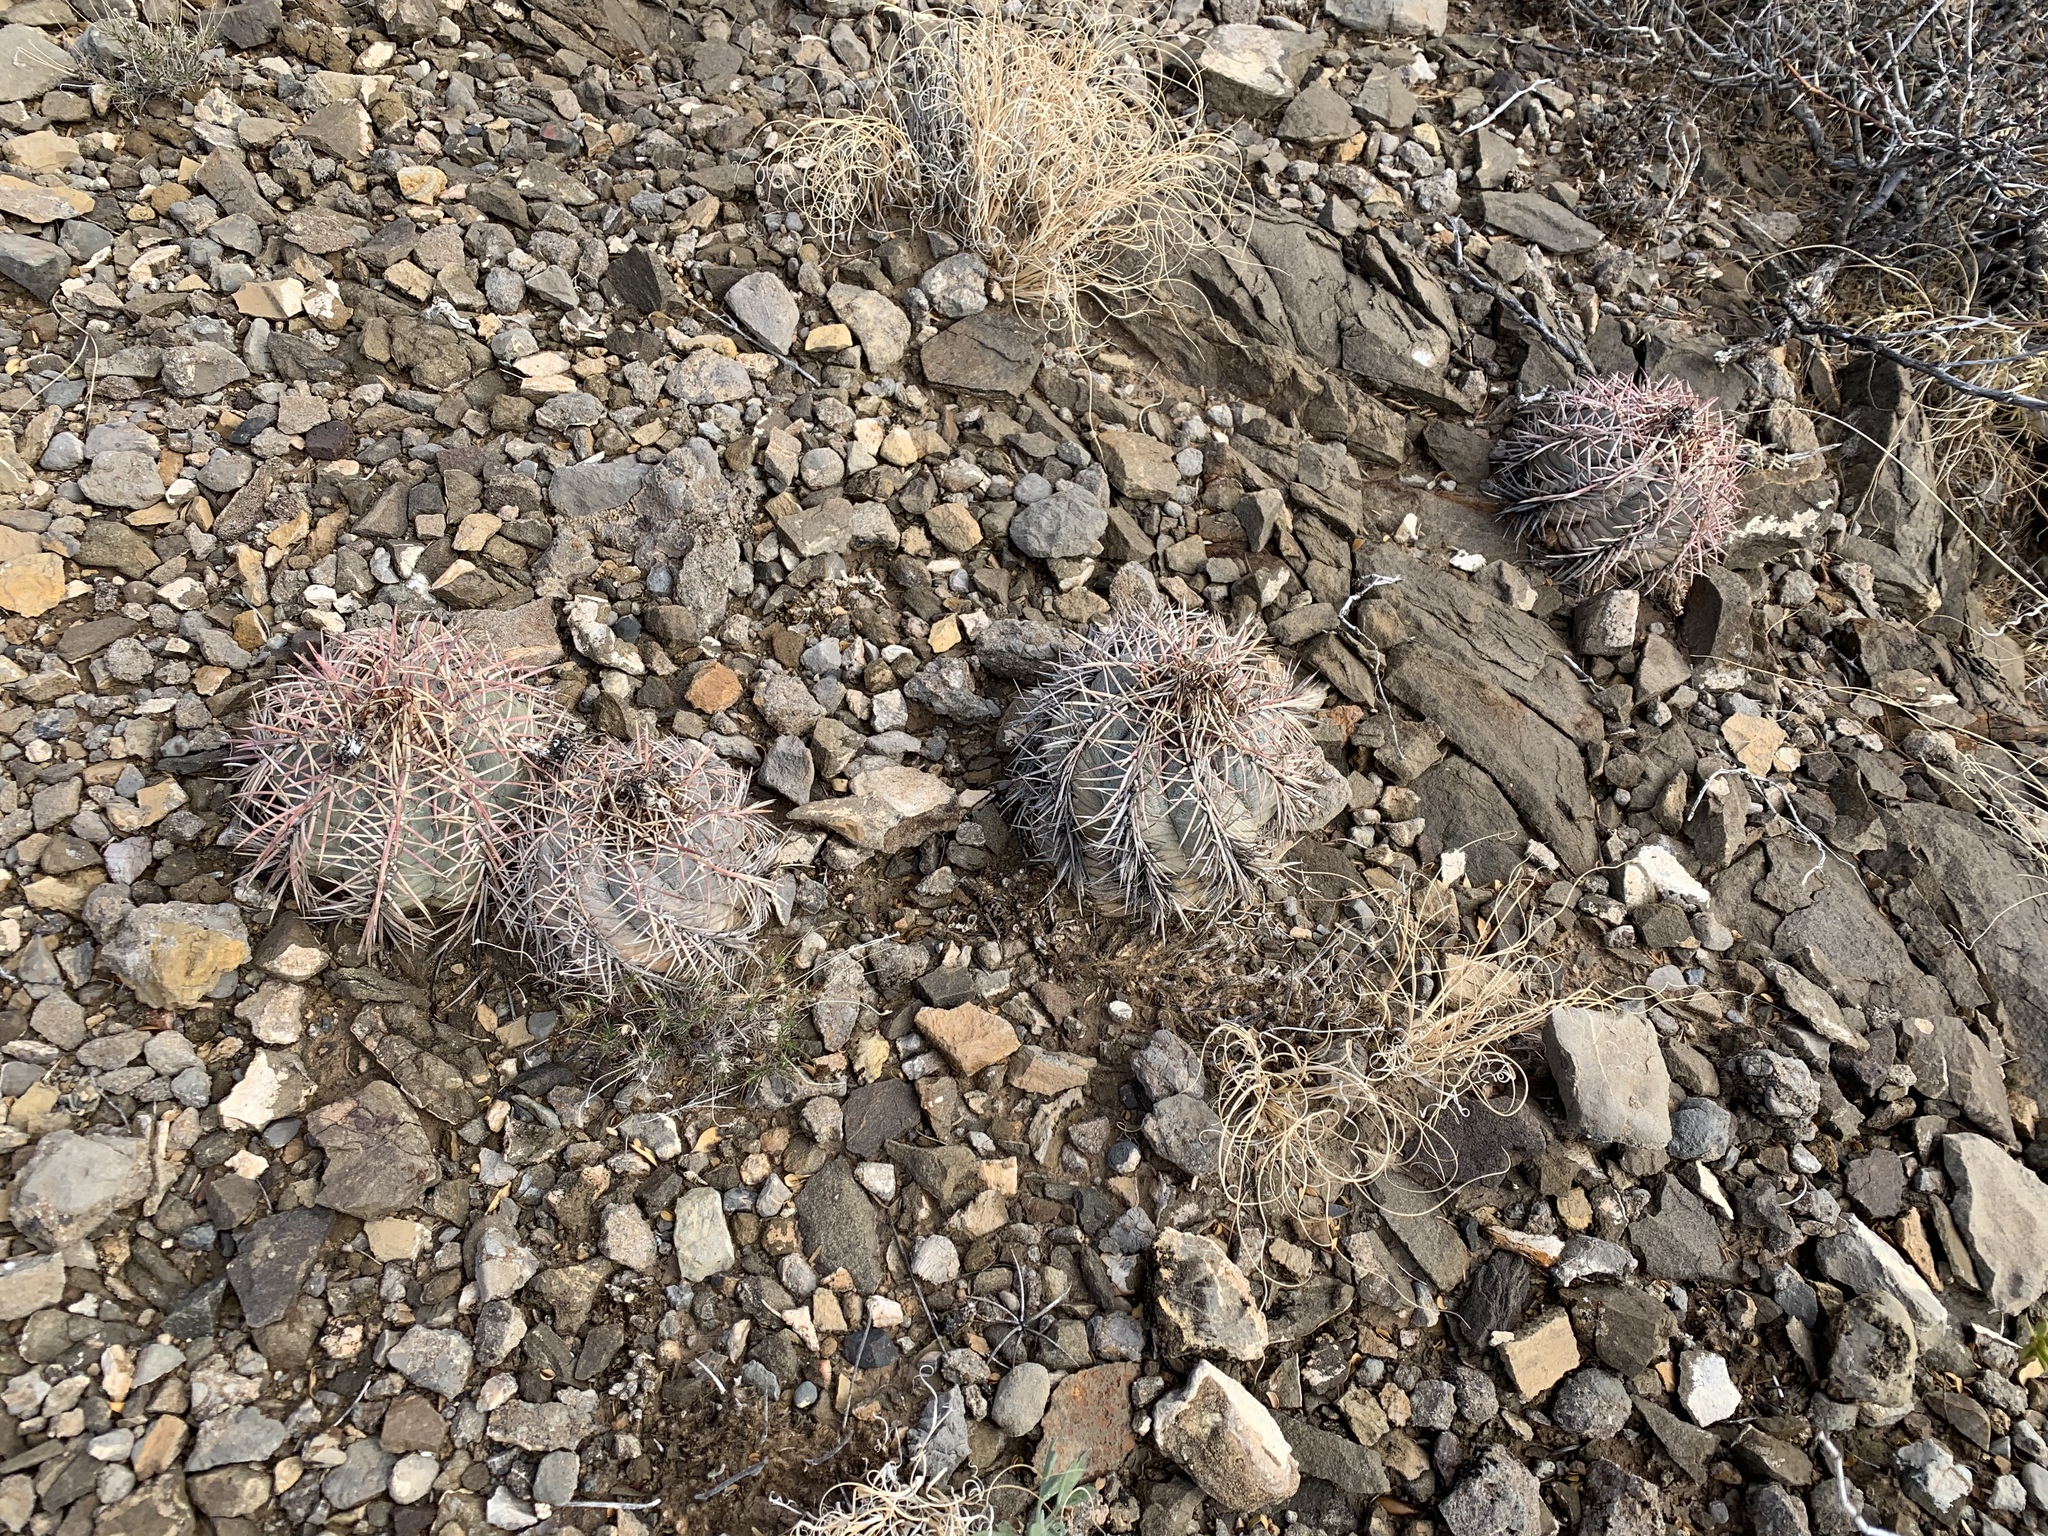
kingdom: Plantae
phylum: Tracheophyta
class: Magnoliopsida
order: Caryophyllales
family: Cactaceae
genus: Echinocactus
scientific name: Echinocactus horizonthalonius
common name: Devilshead
